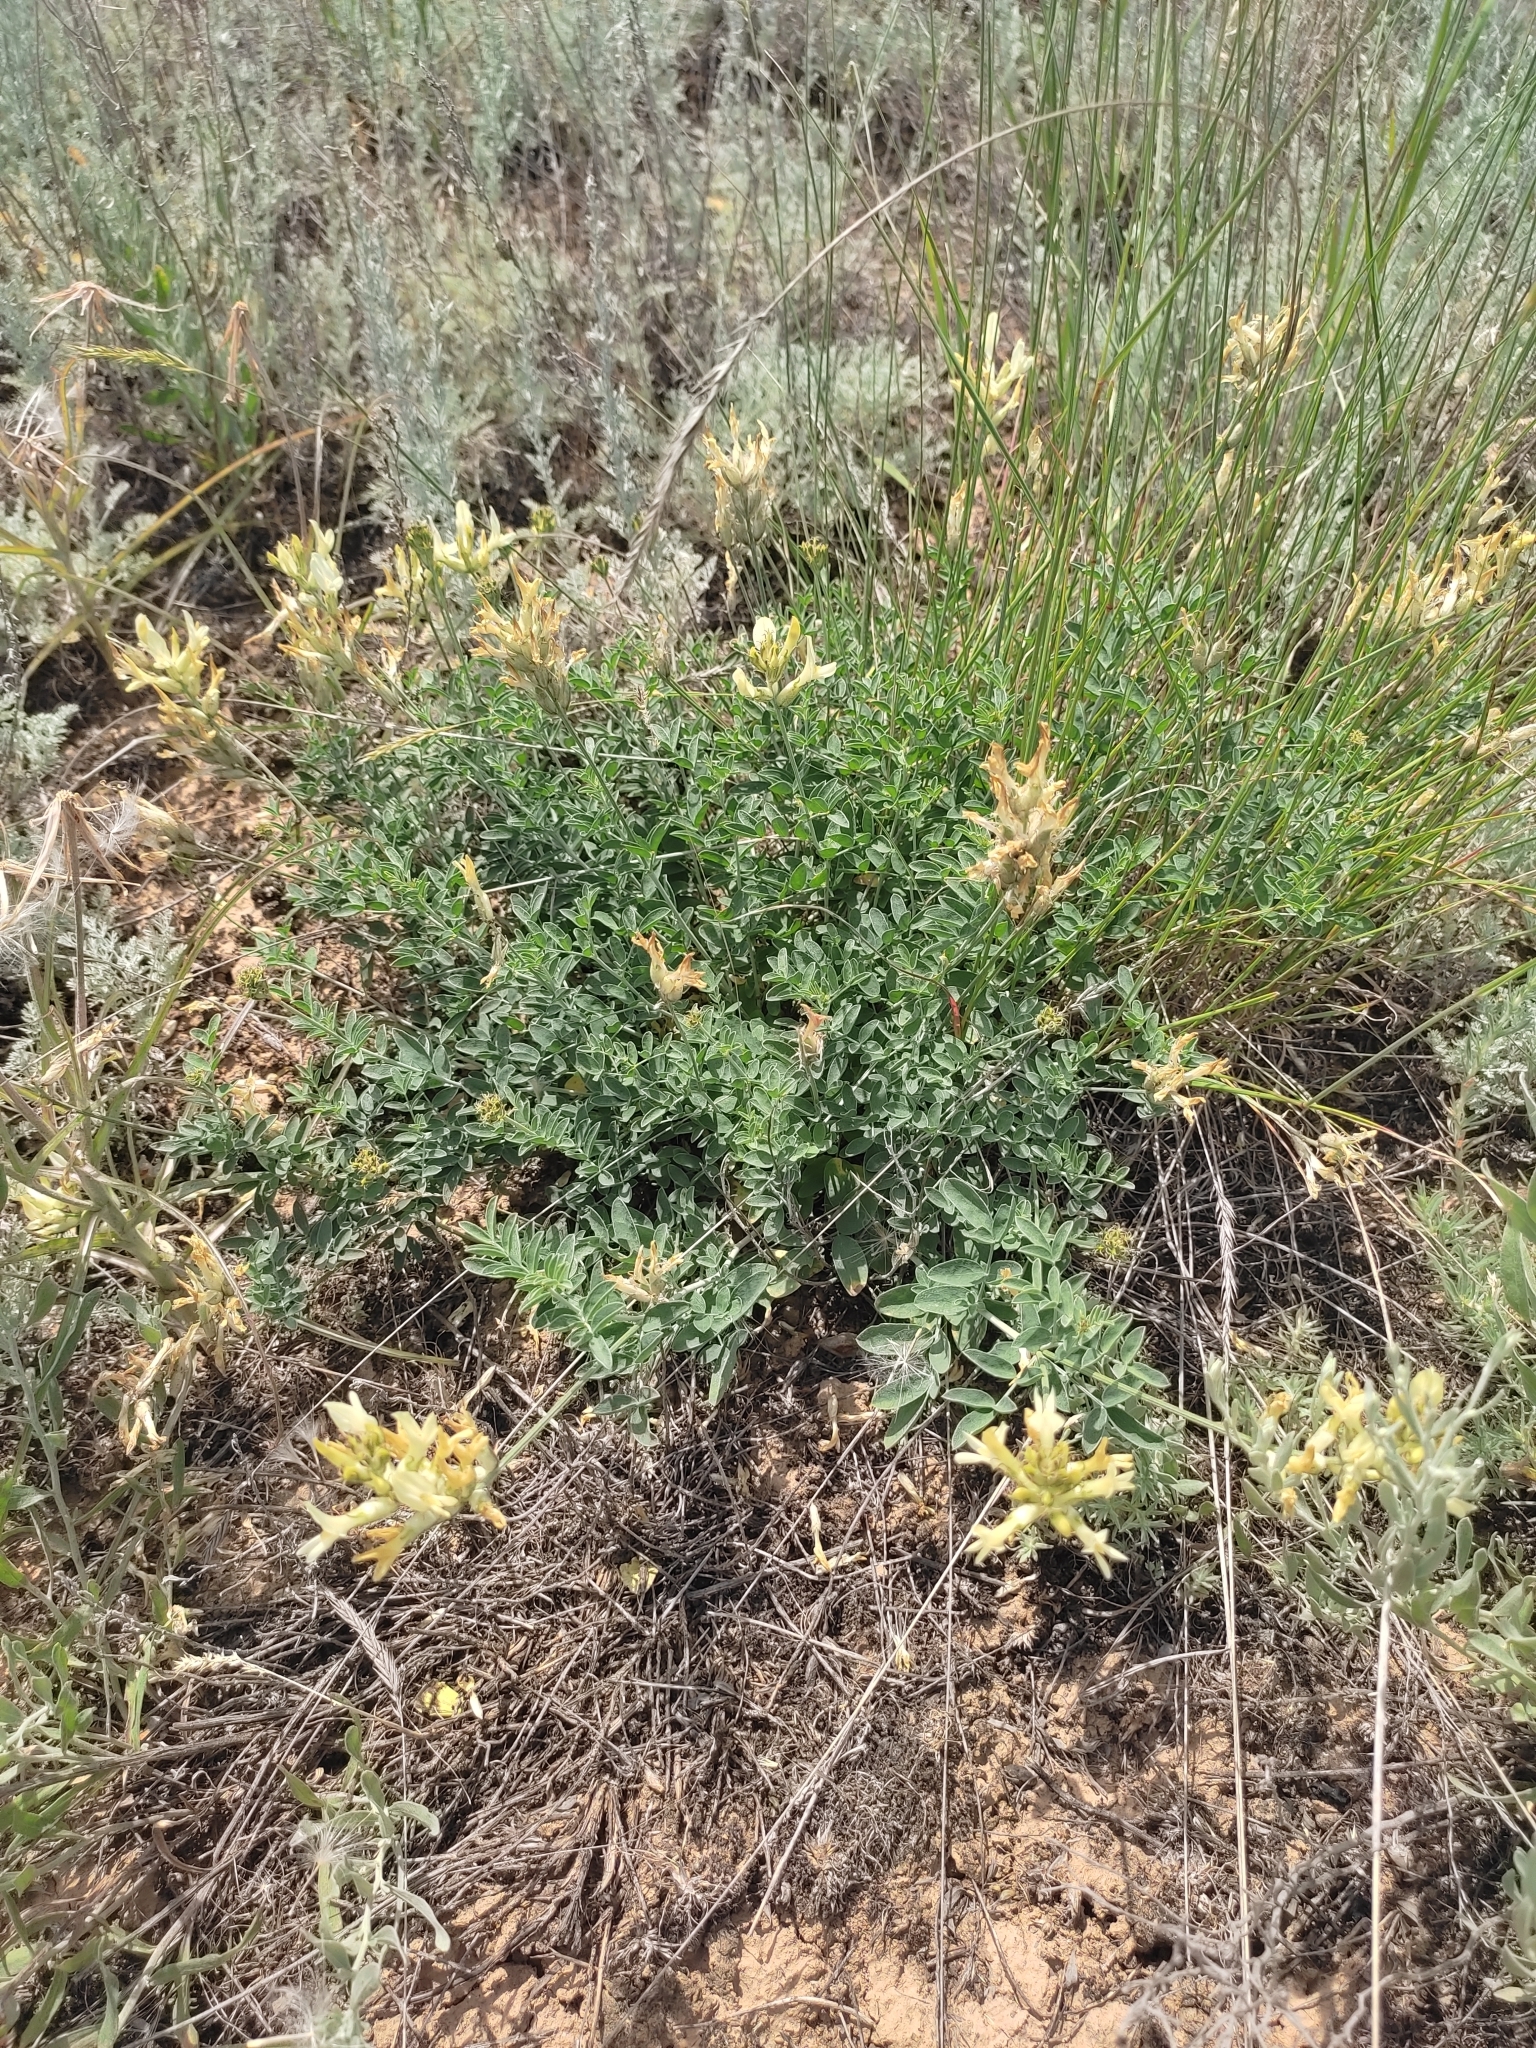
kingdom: Plantae
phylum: Tracheophyta
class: Magnoliopsida
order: Fabales
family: Fabaceae
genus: Astragalus
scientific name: Astragalus albicaulis
